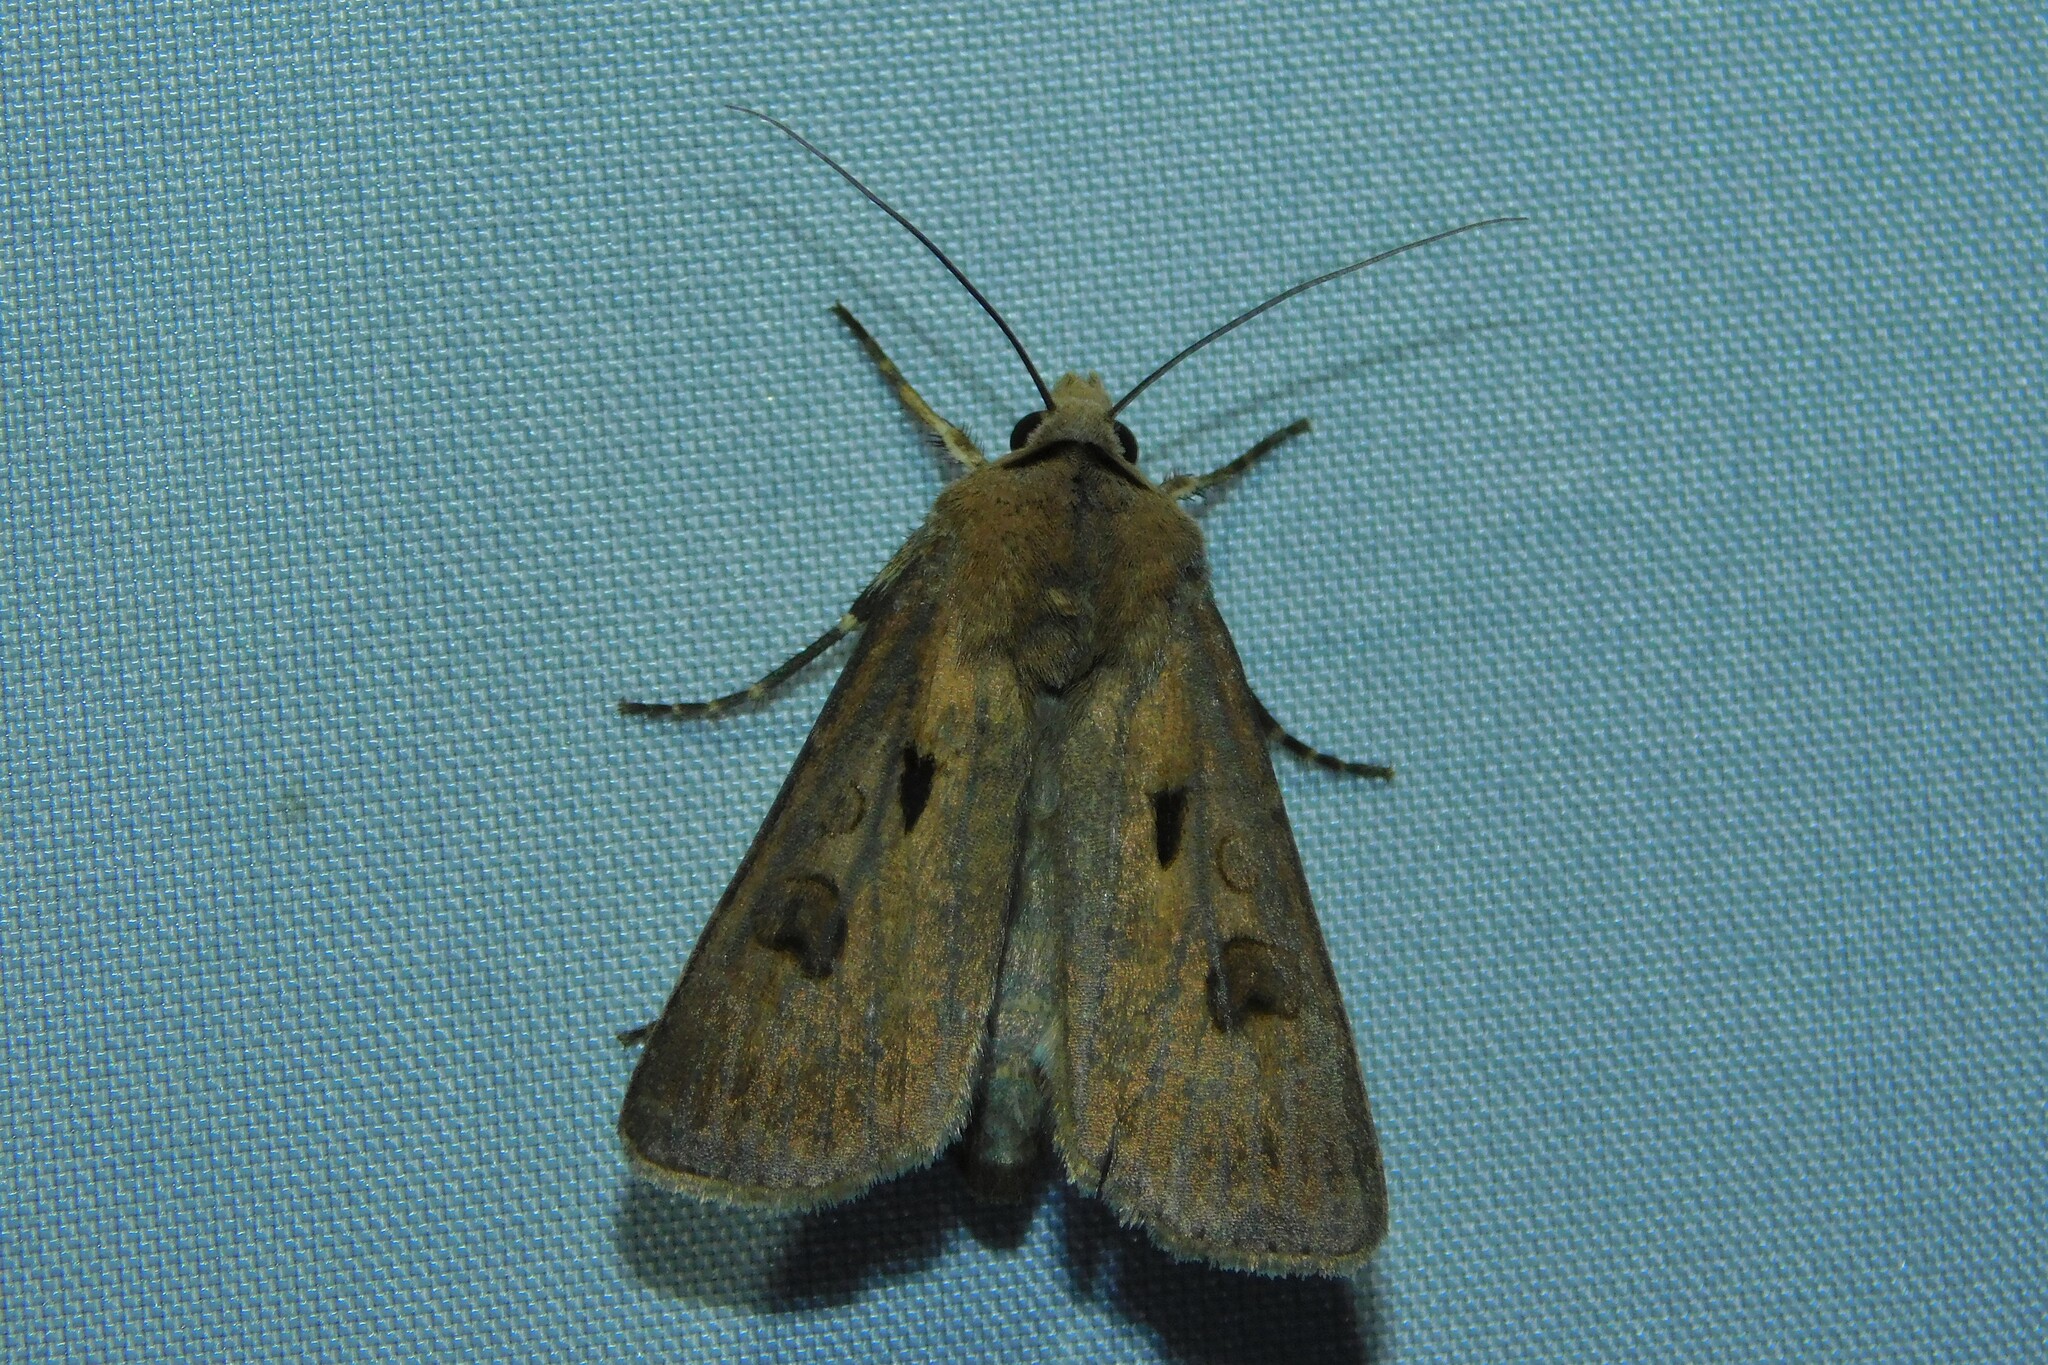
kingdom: Animalia
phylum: Arthropoda
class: Insecta
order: Lepidoptera
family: Noctuidae
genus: Agrotis
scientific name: Agrotis exclamationis
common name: Heart and dart
